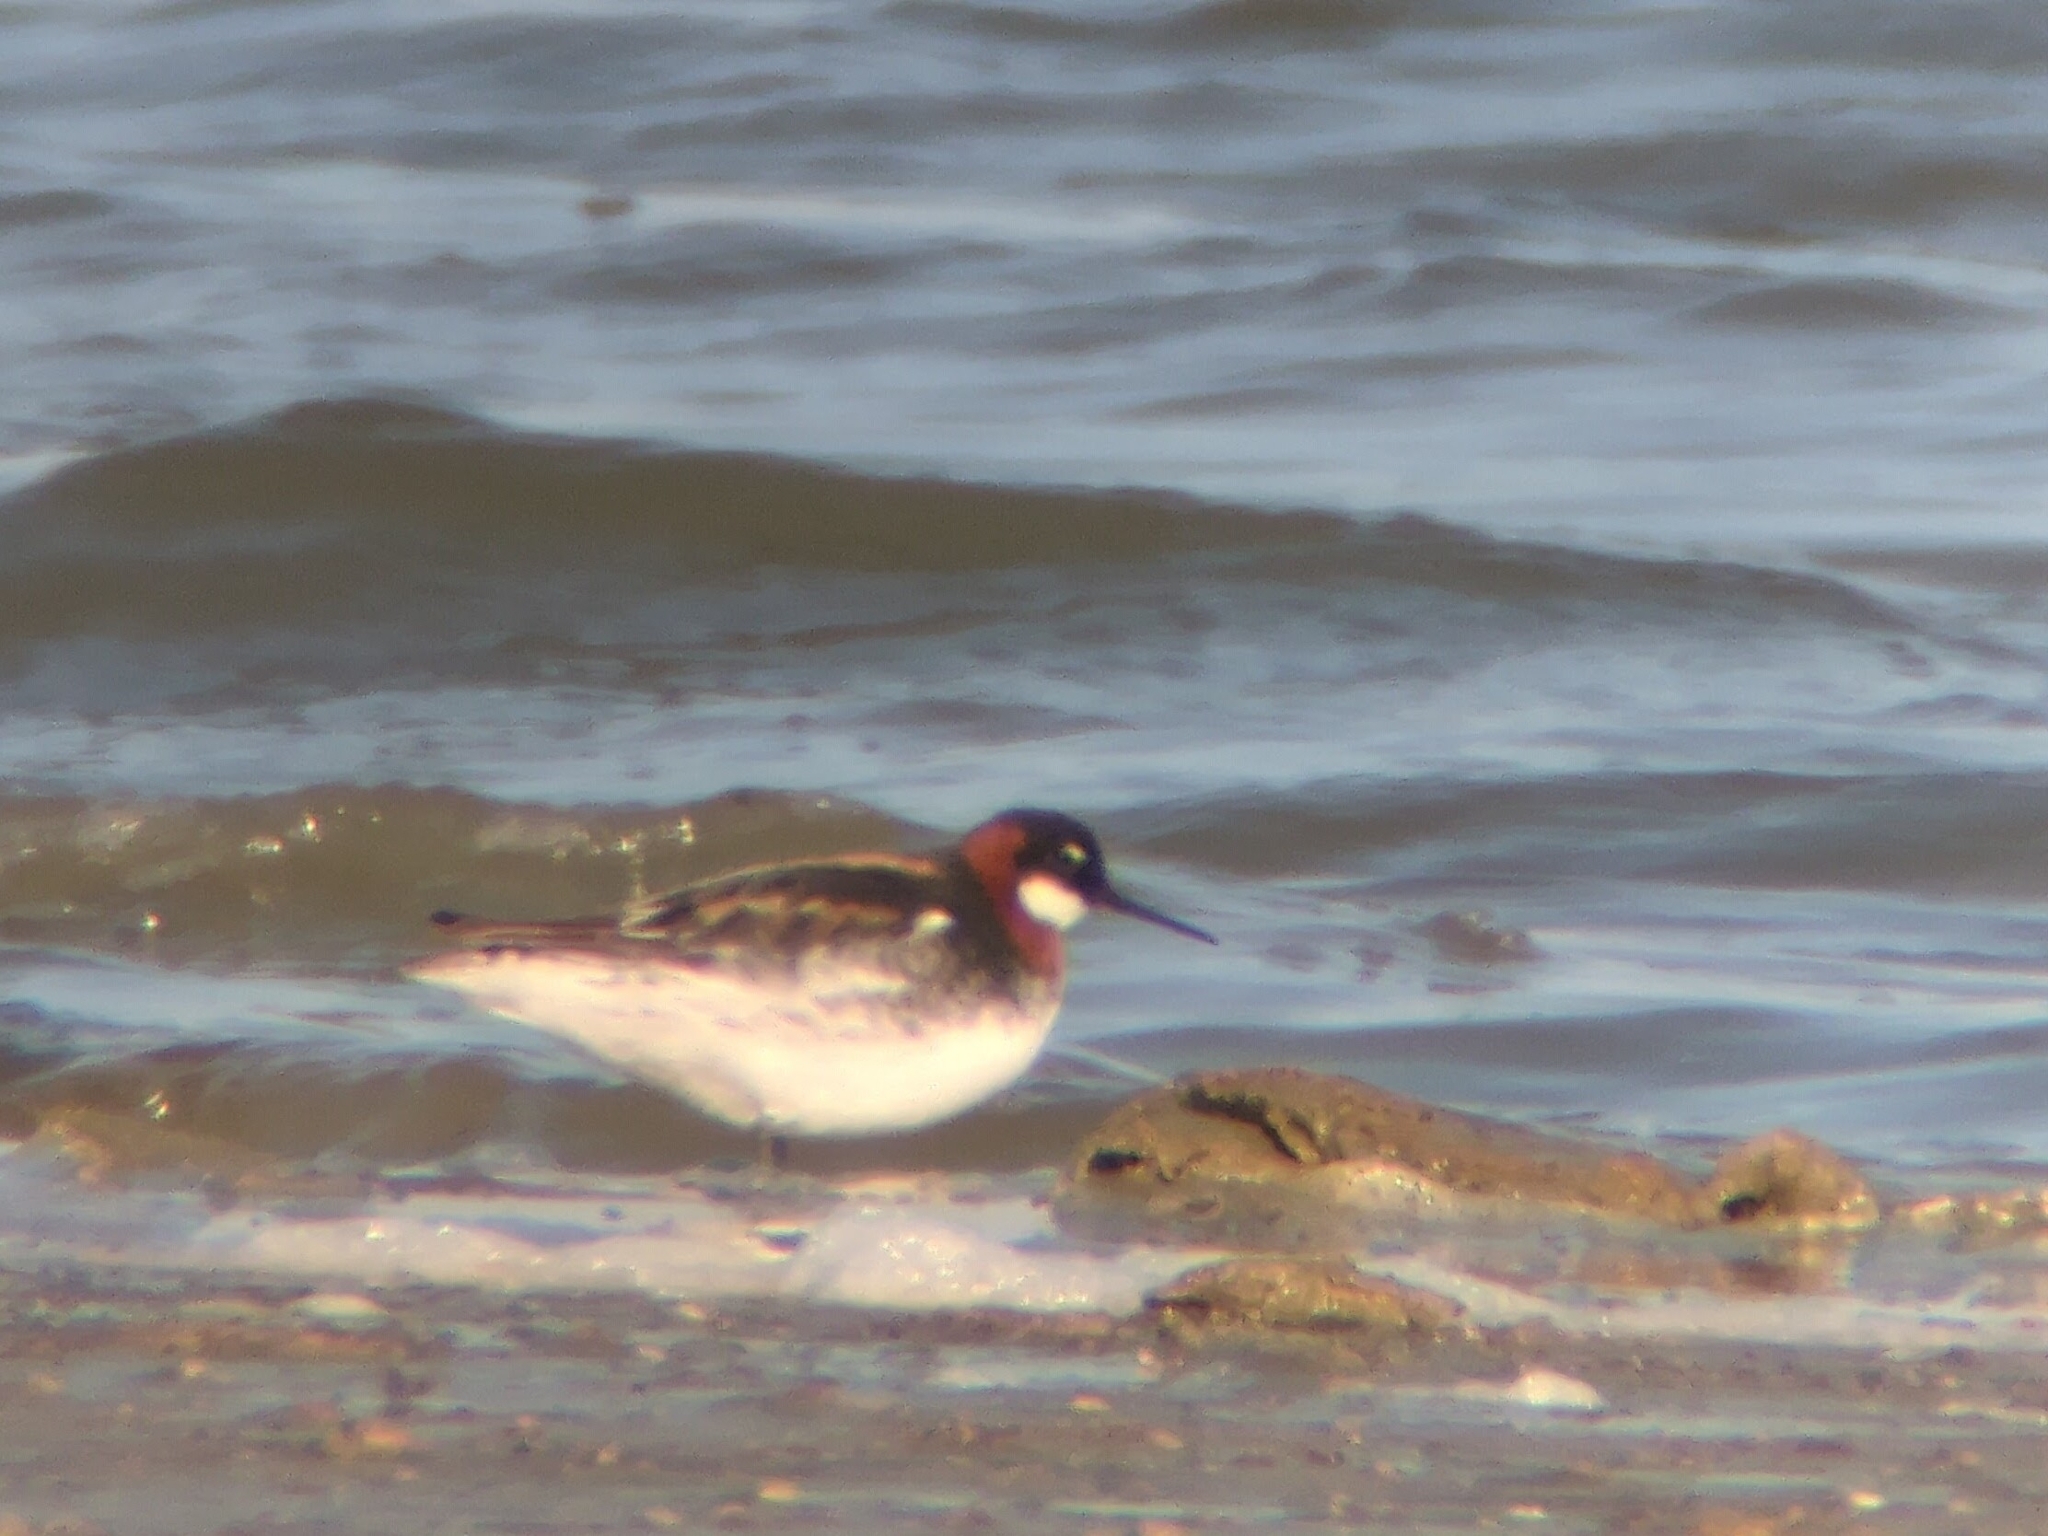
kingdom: Animalia
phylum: Chordata
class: Aves
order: Charadriiformes
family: Scolopacidae
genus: Phalaropus
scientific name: Phalaropus lobatus
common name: Red-necked phalarope
